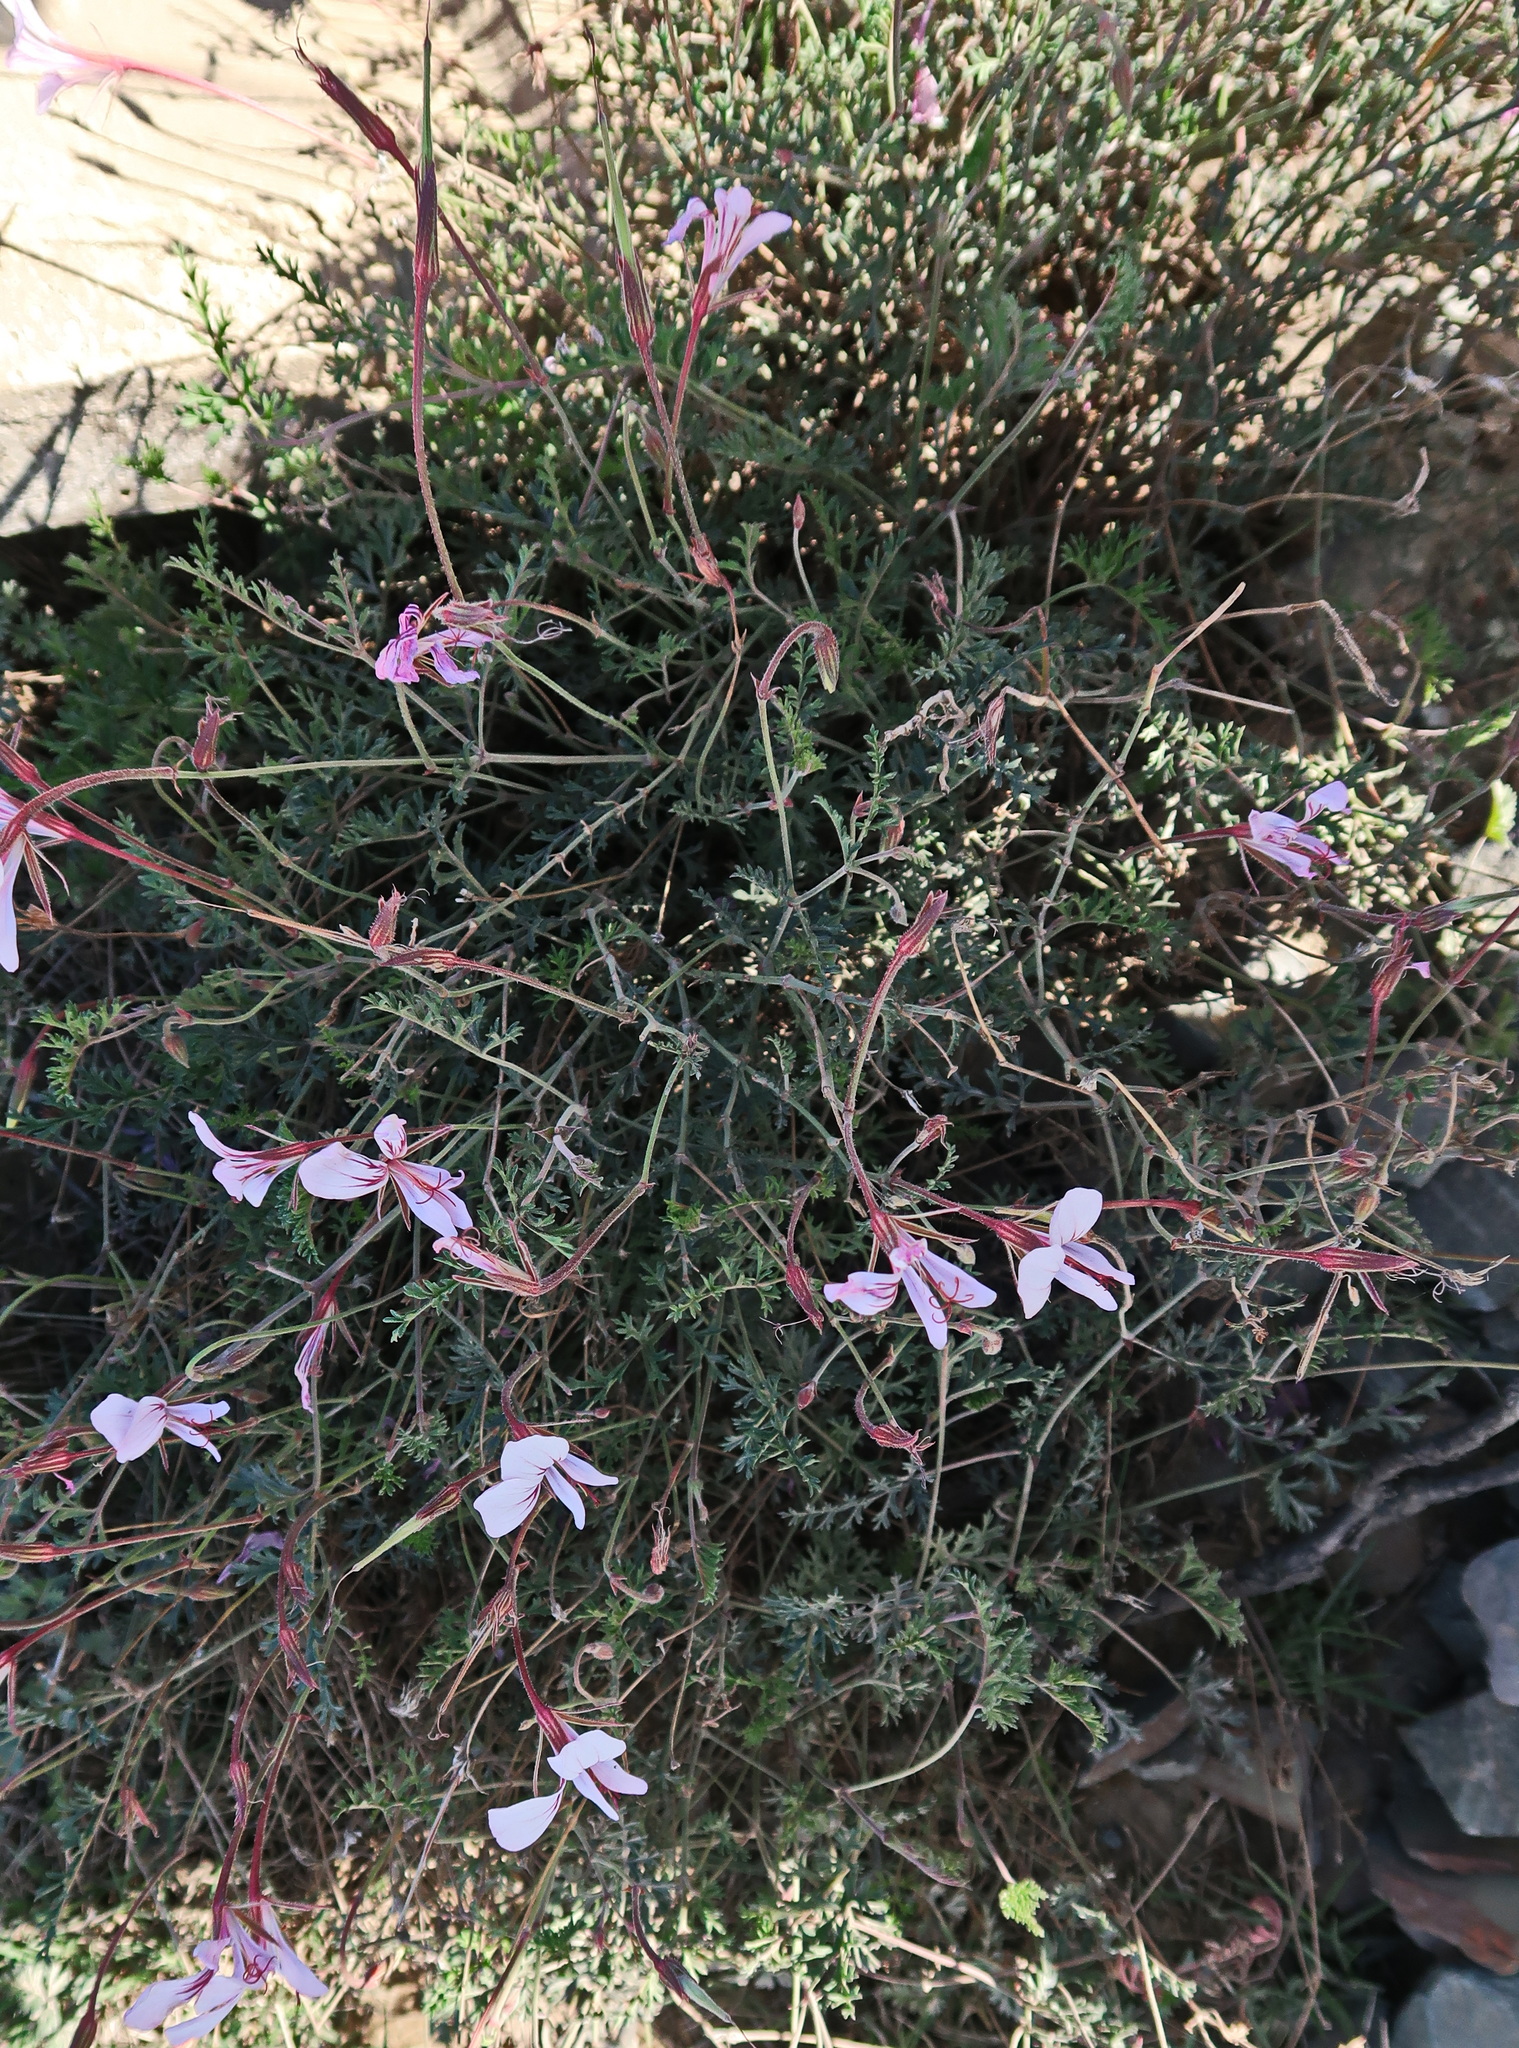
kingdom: Plantae
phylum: Tracheophyta
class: Magnoliopsida
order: Geraniales
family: Geraniaceae
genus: Pelargonium
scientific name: Pelargonium caucalifolium
